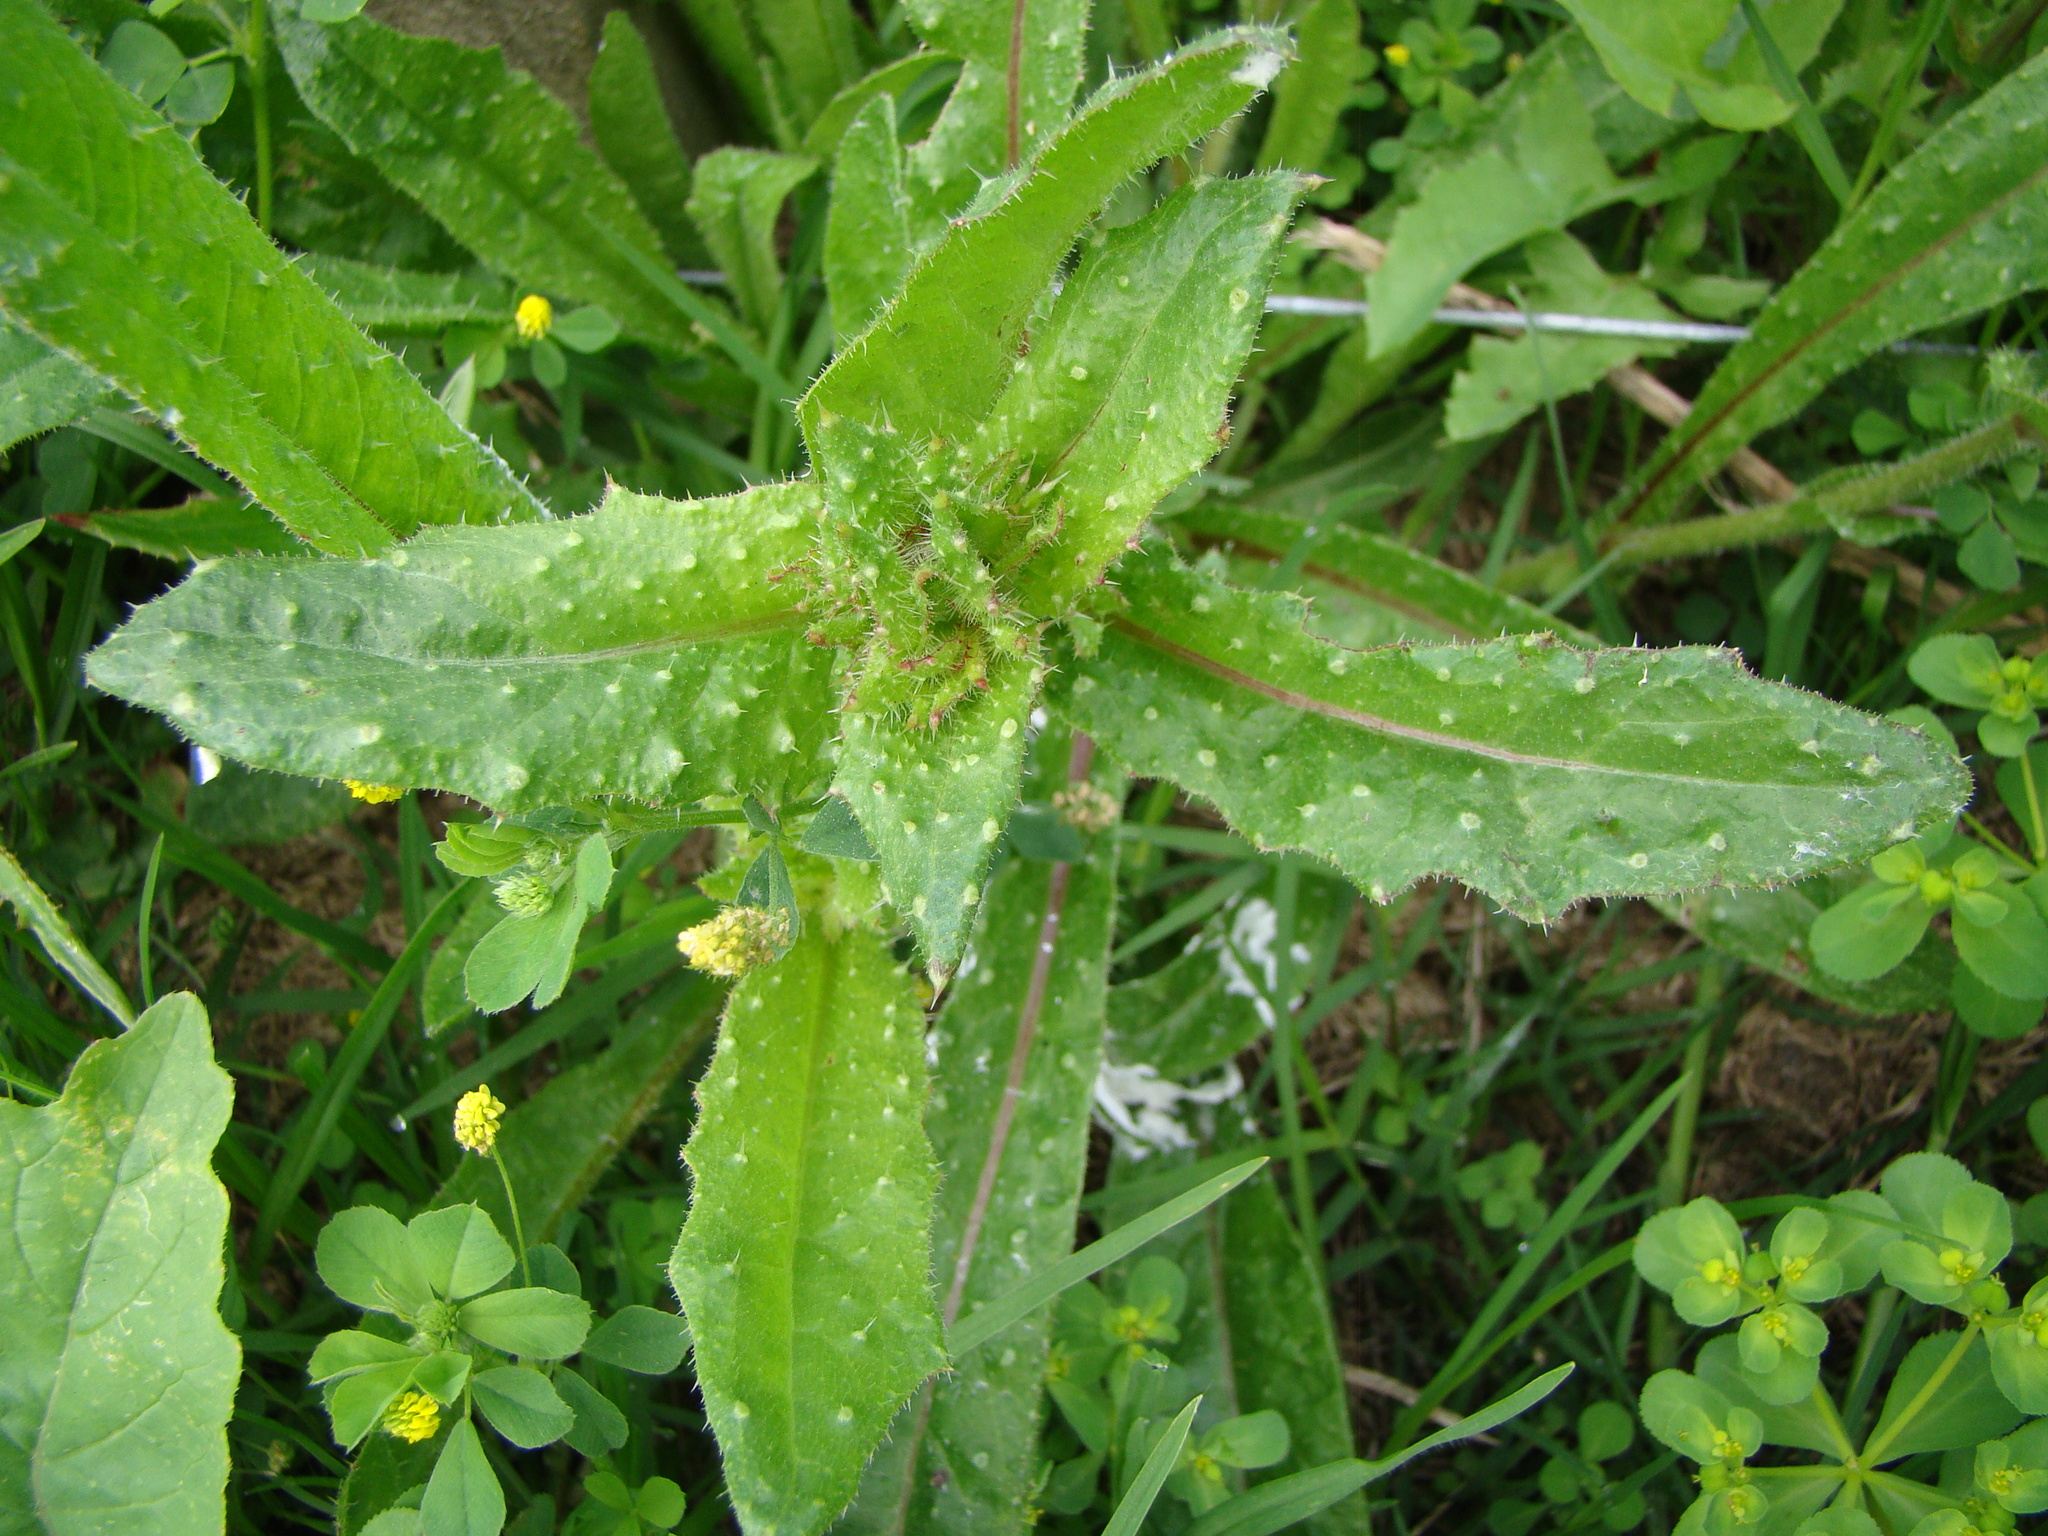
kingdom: Plantae
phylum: Tracheophyta
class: Magnoliopsida
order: Asterales
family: Asteraceae
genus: Helminthotheca
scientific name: Helminthotheca echioides
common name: Ox-tongue
